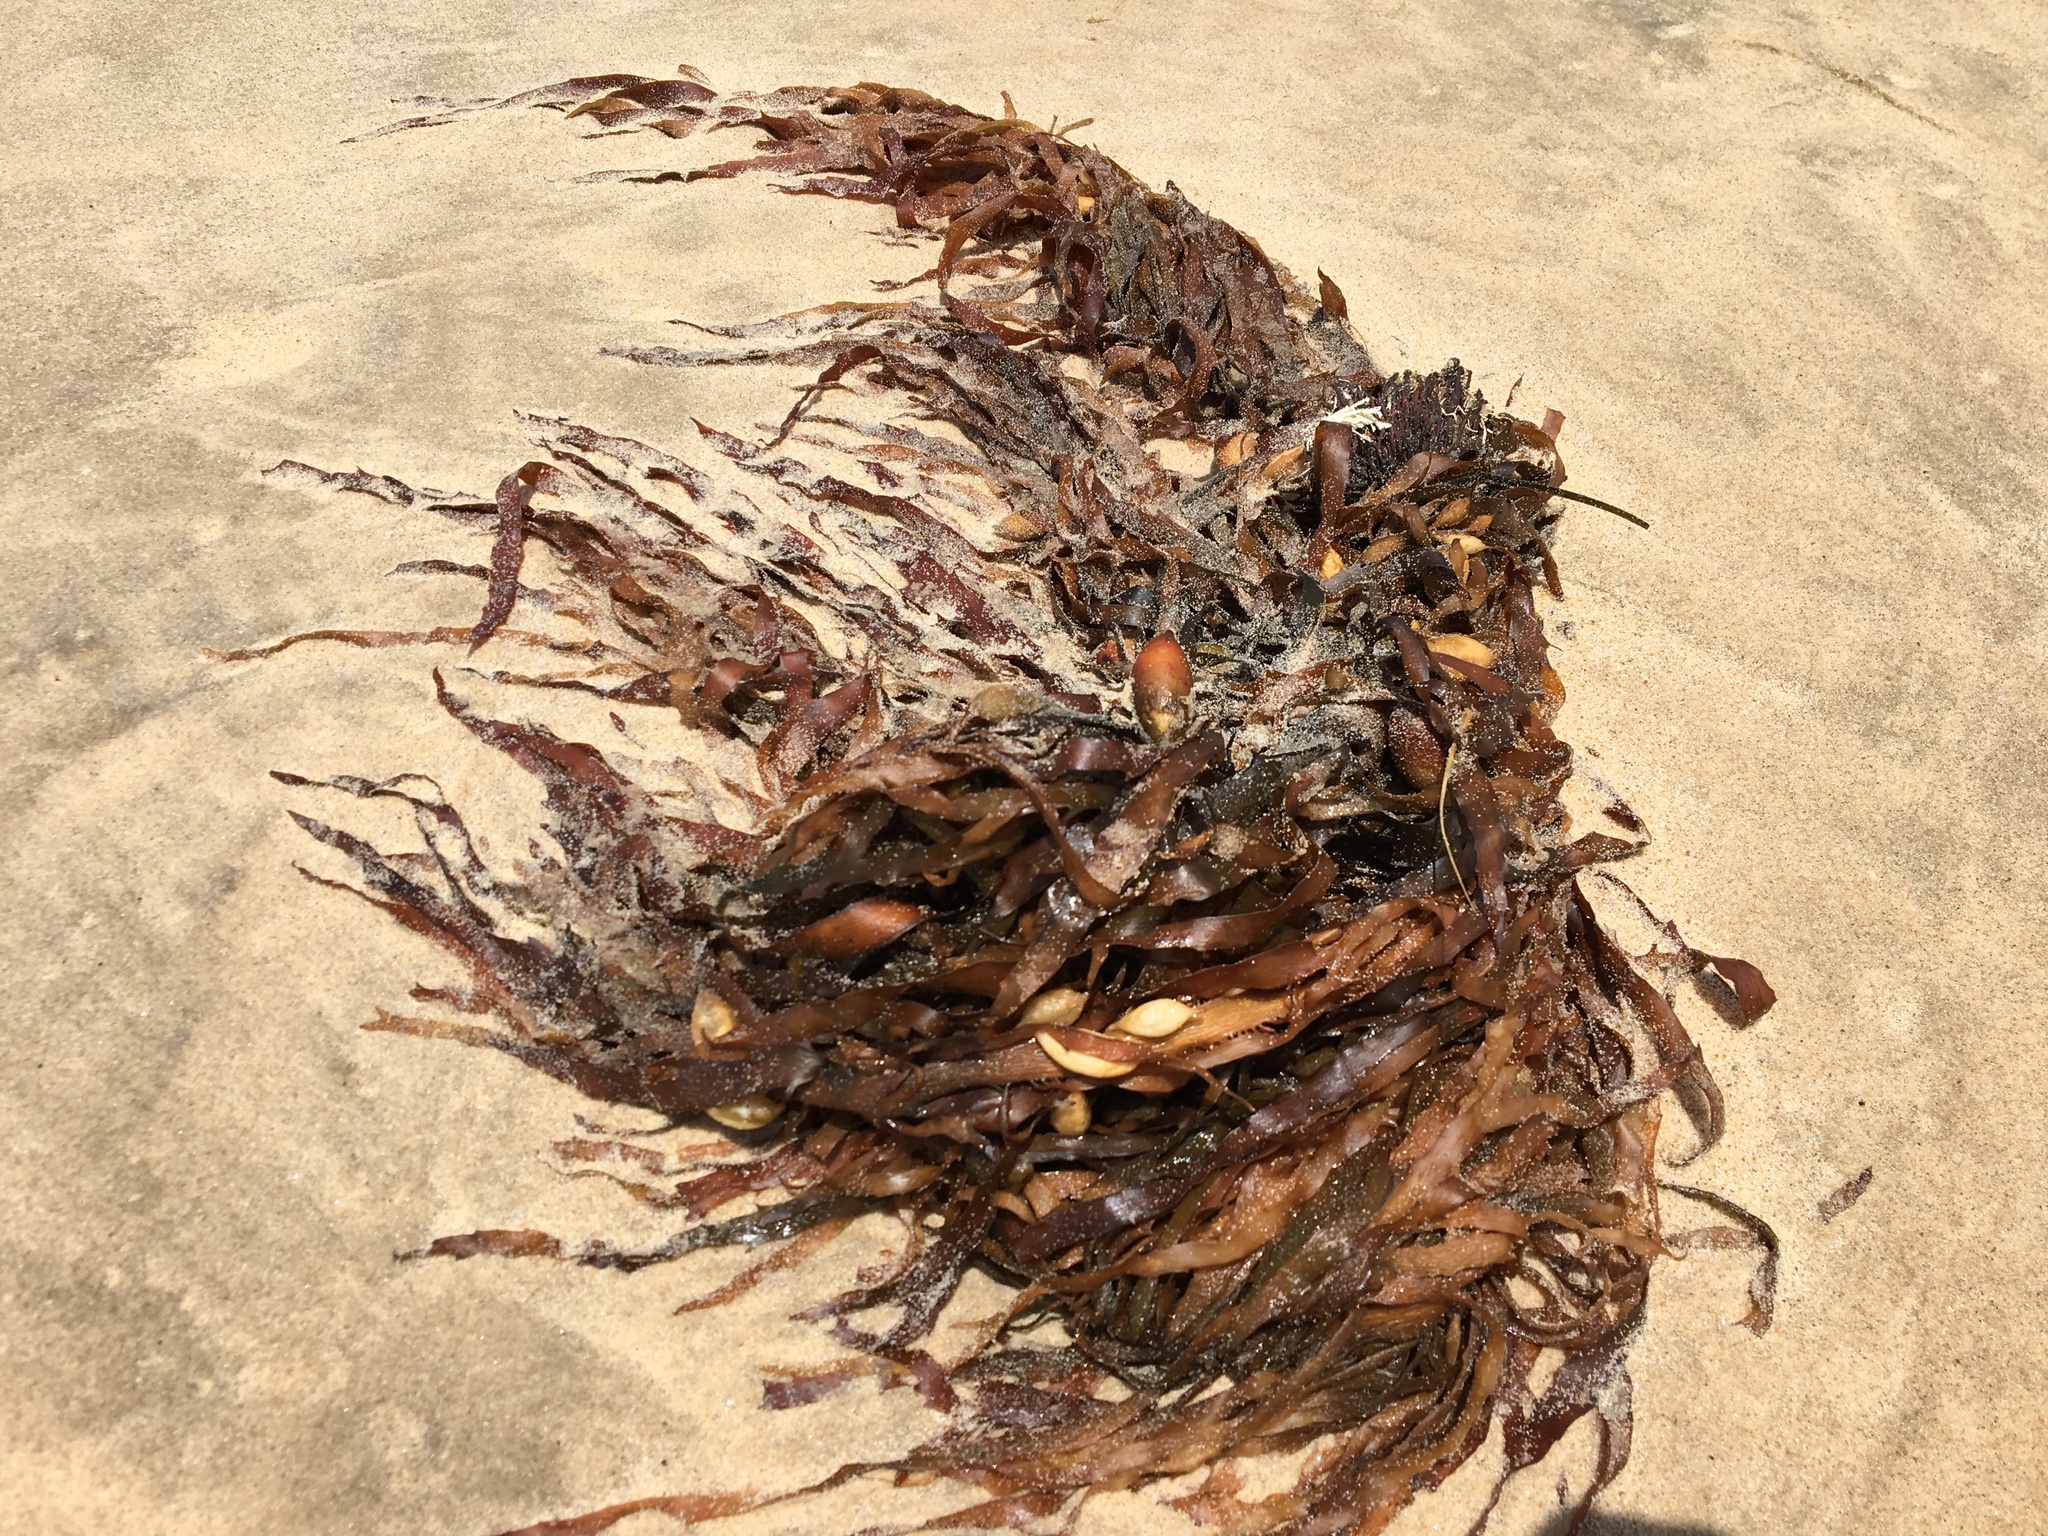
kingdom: Chromista
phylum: Ochrophyta
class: Phaeophyceae
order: Fucales
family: Seirococcaceae
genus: Phyllospora
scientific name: Phyllospora
